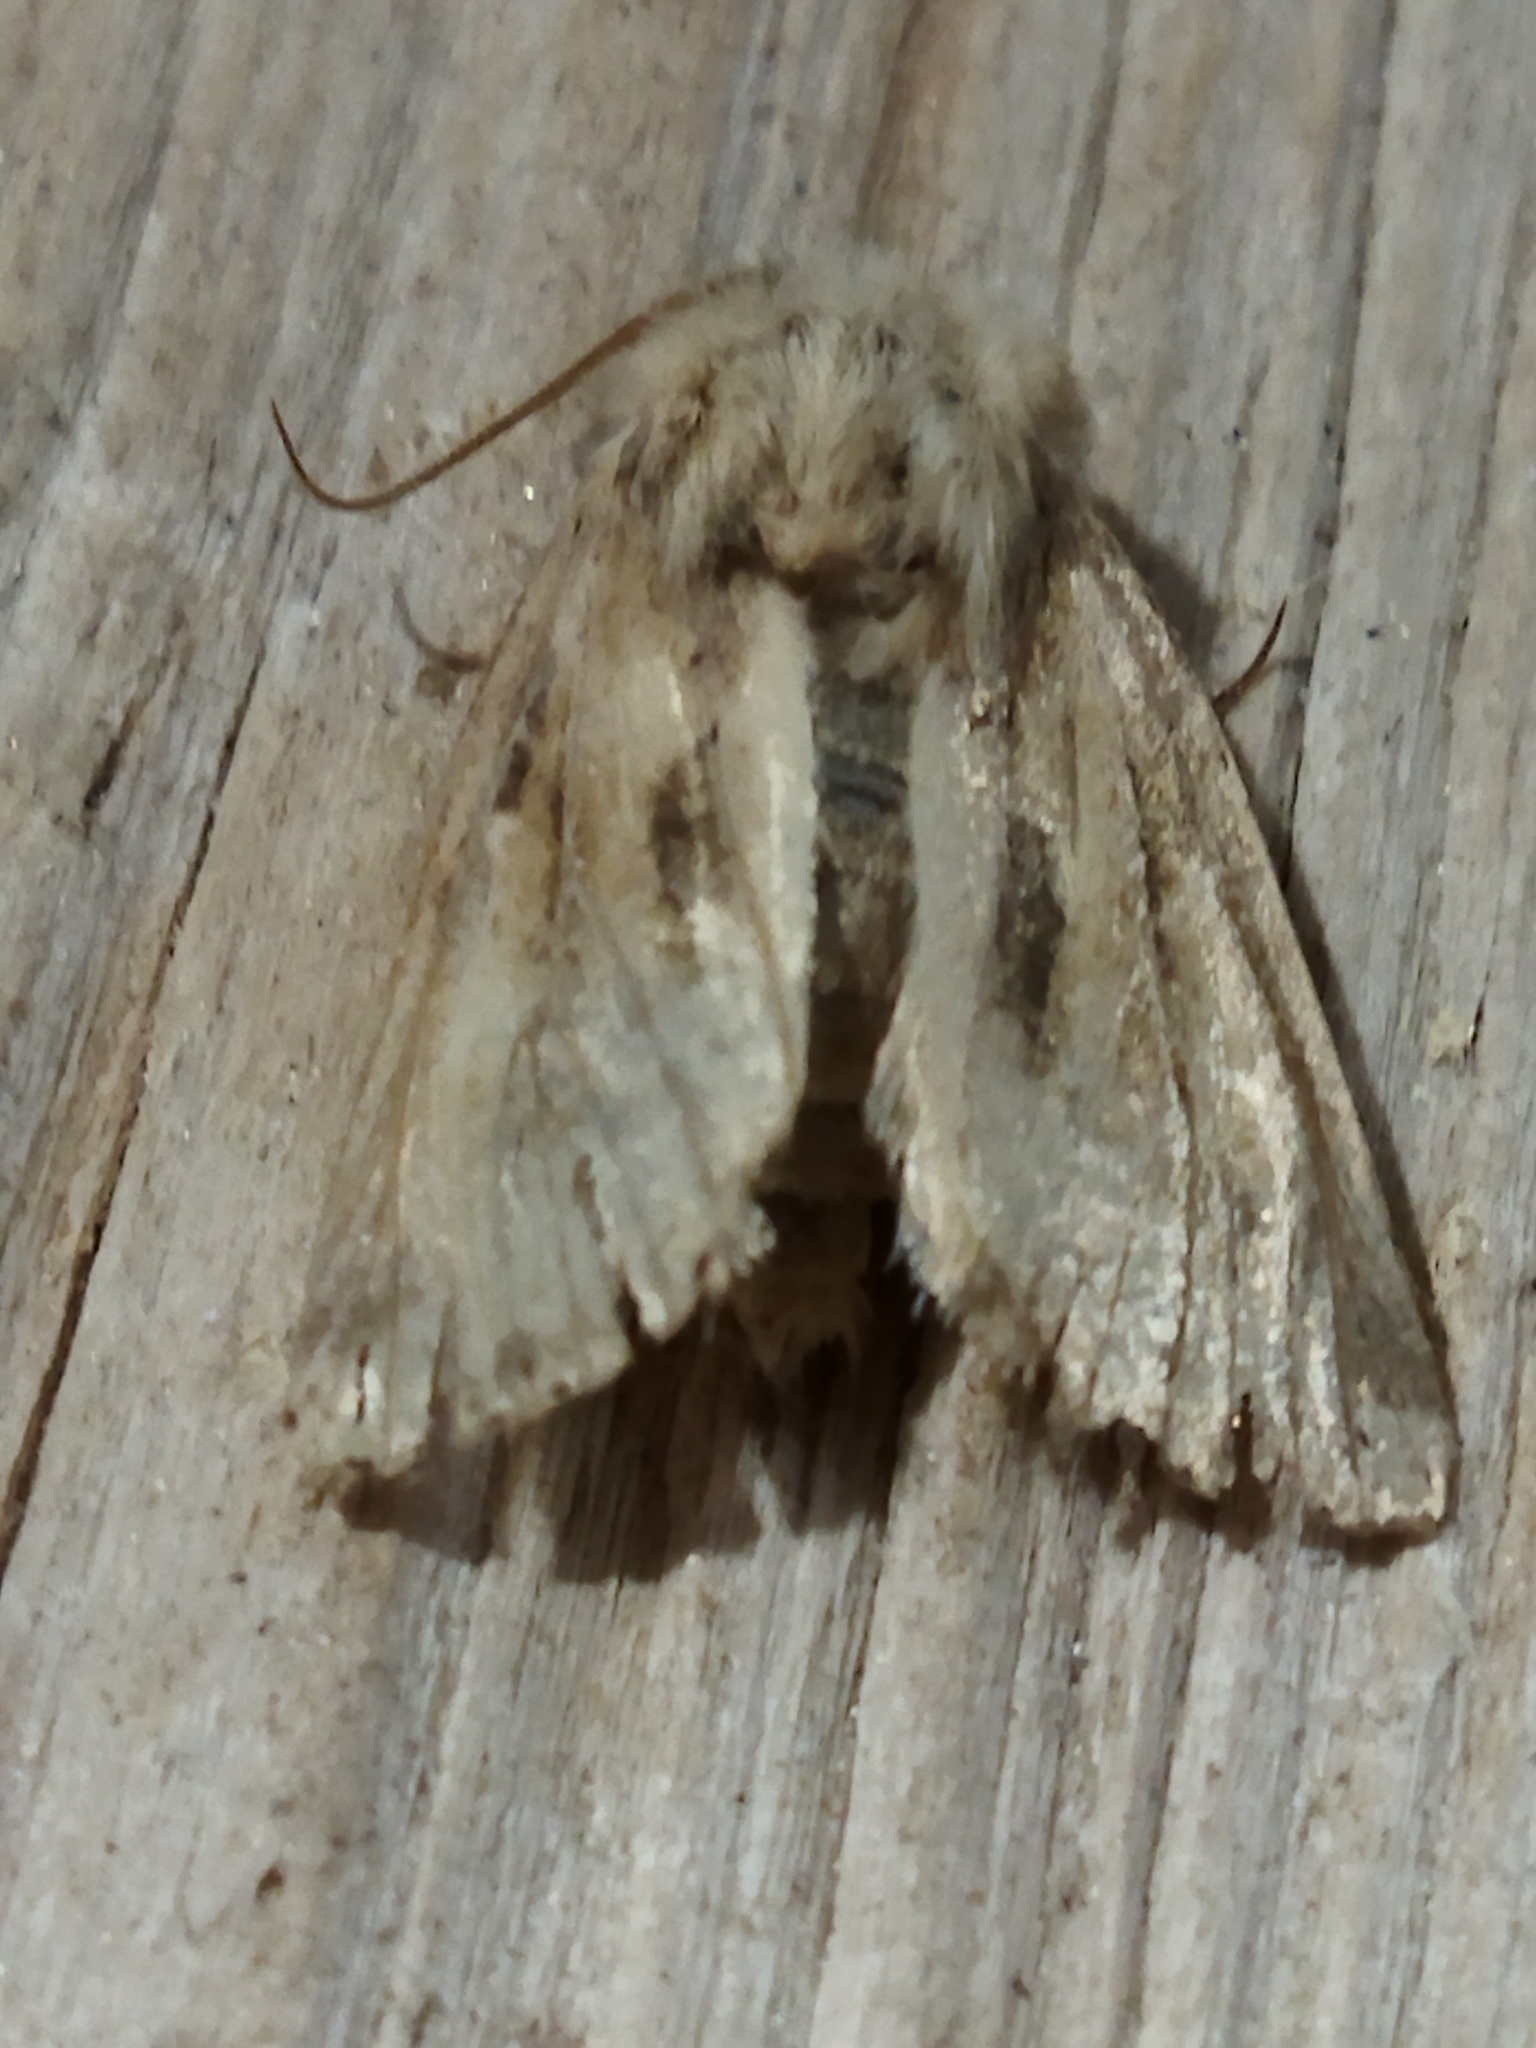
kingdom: Animalia
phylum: Arthropoda
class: Insecta
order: Lepidoptera
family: Noctuidae
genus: Luperina
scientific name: Luperina dumerilii
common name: Dumeril's rustic
